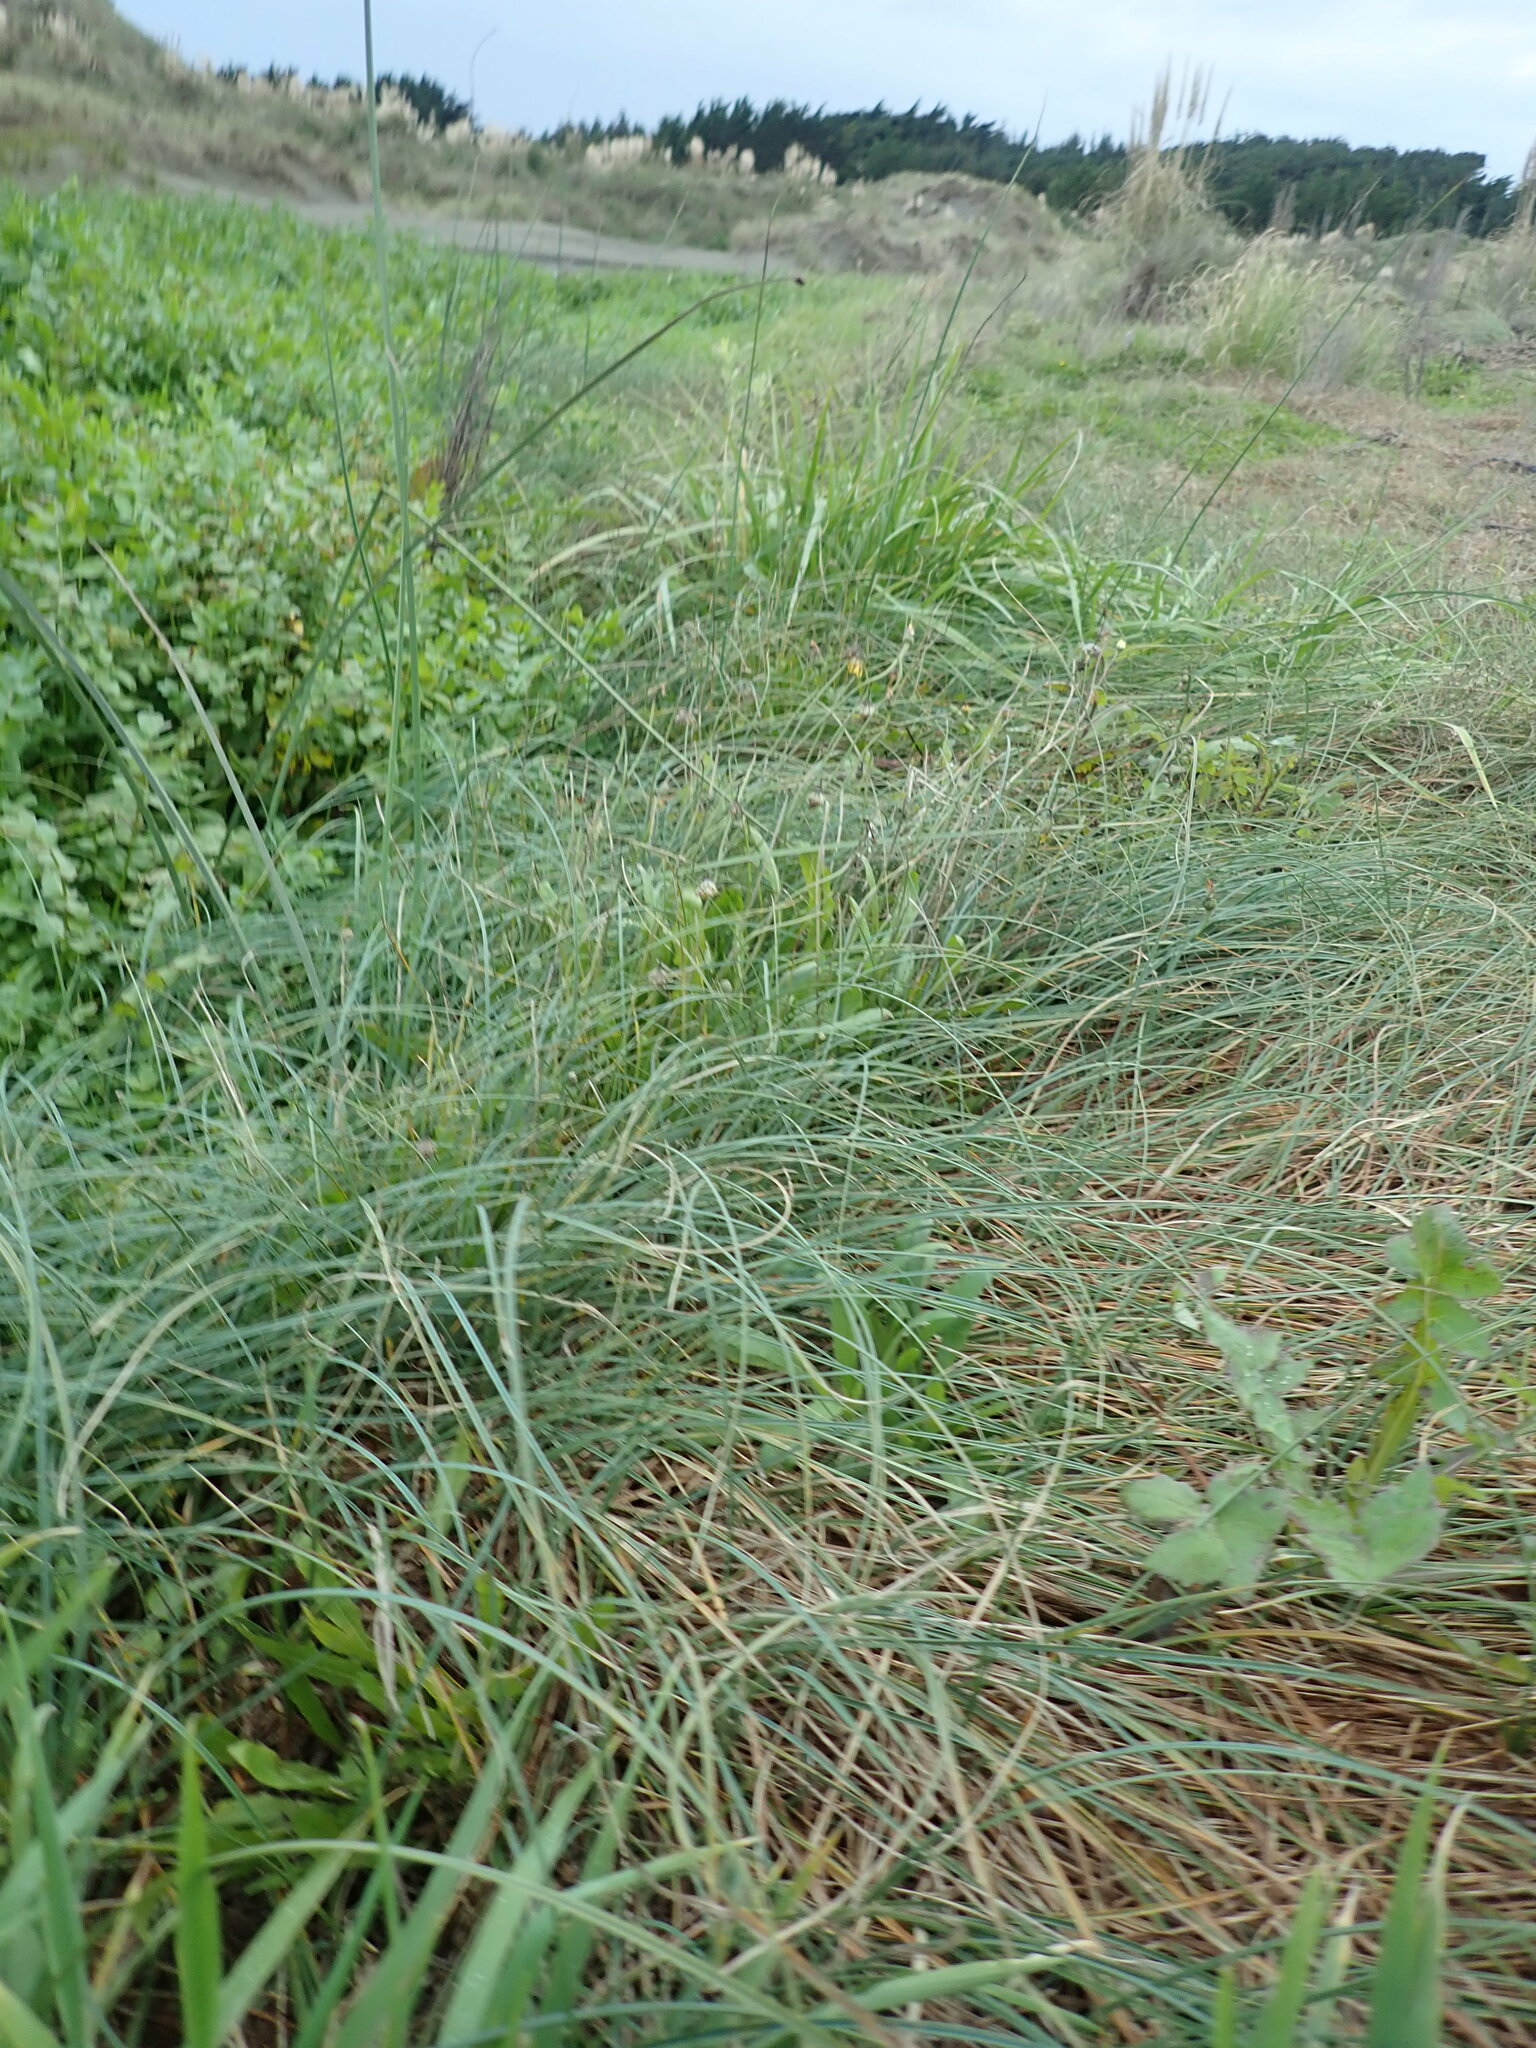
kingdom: Plantae
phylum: Tracheophyta
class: Liliopsida
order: Poales
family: Cyperaceae
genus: Carex
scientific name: Carex pumila
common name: Dwarf sedge
